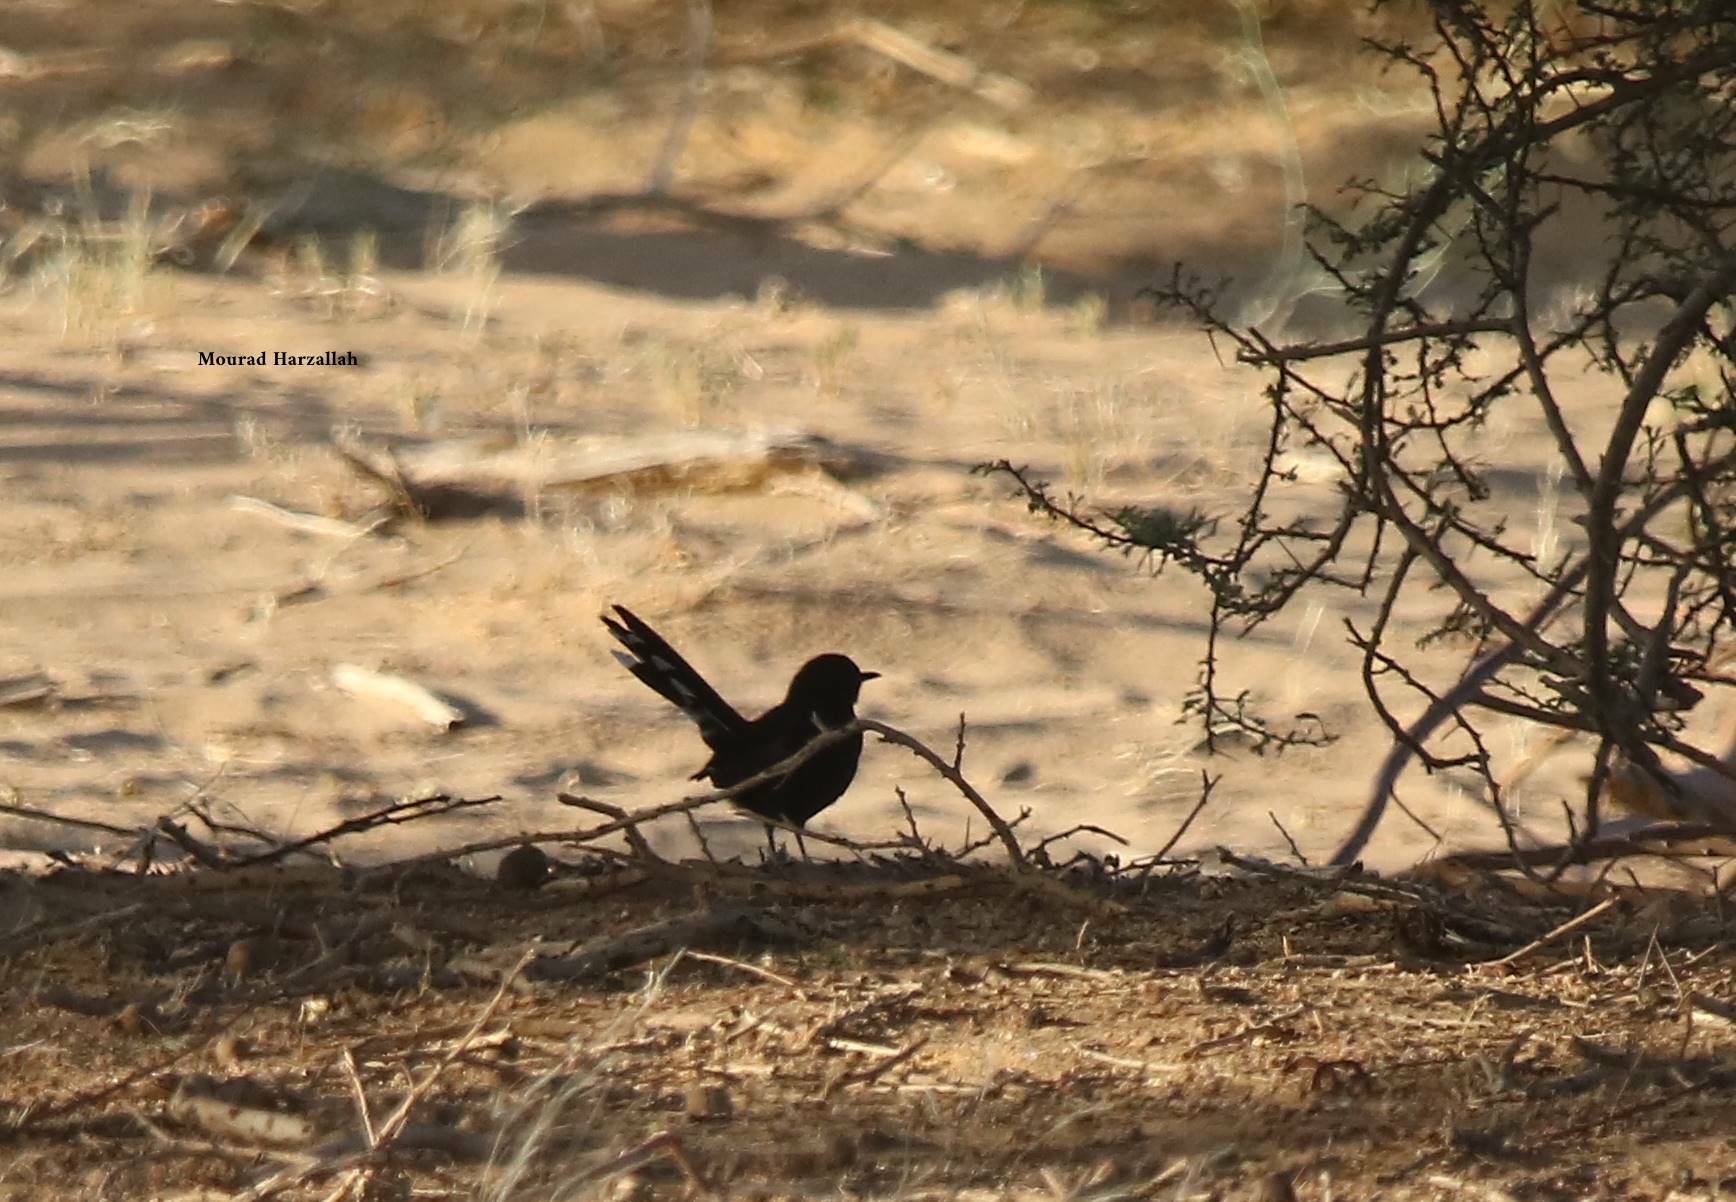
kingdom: Animalia
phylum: Chordata
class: Aves
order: Passeriformes
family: Muscicapidae
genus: Cercotrichas
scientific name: Cercotrichas podobe
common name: Black scrub robin
